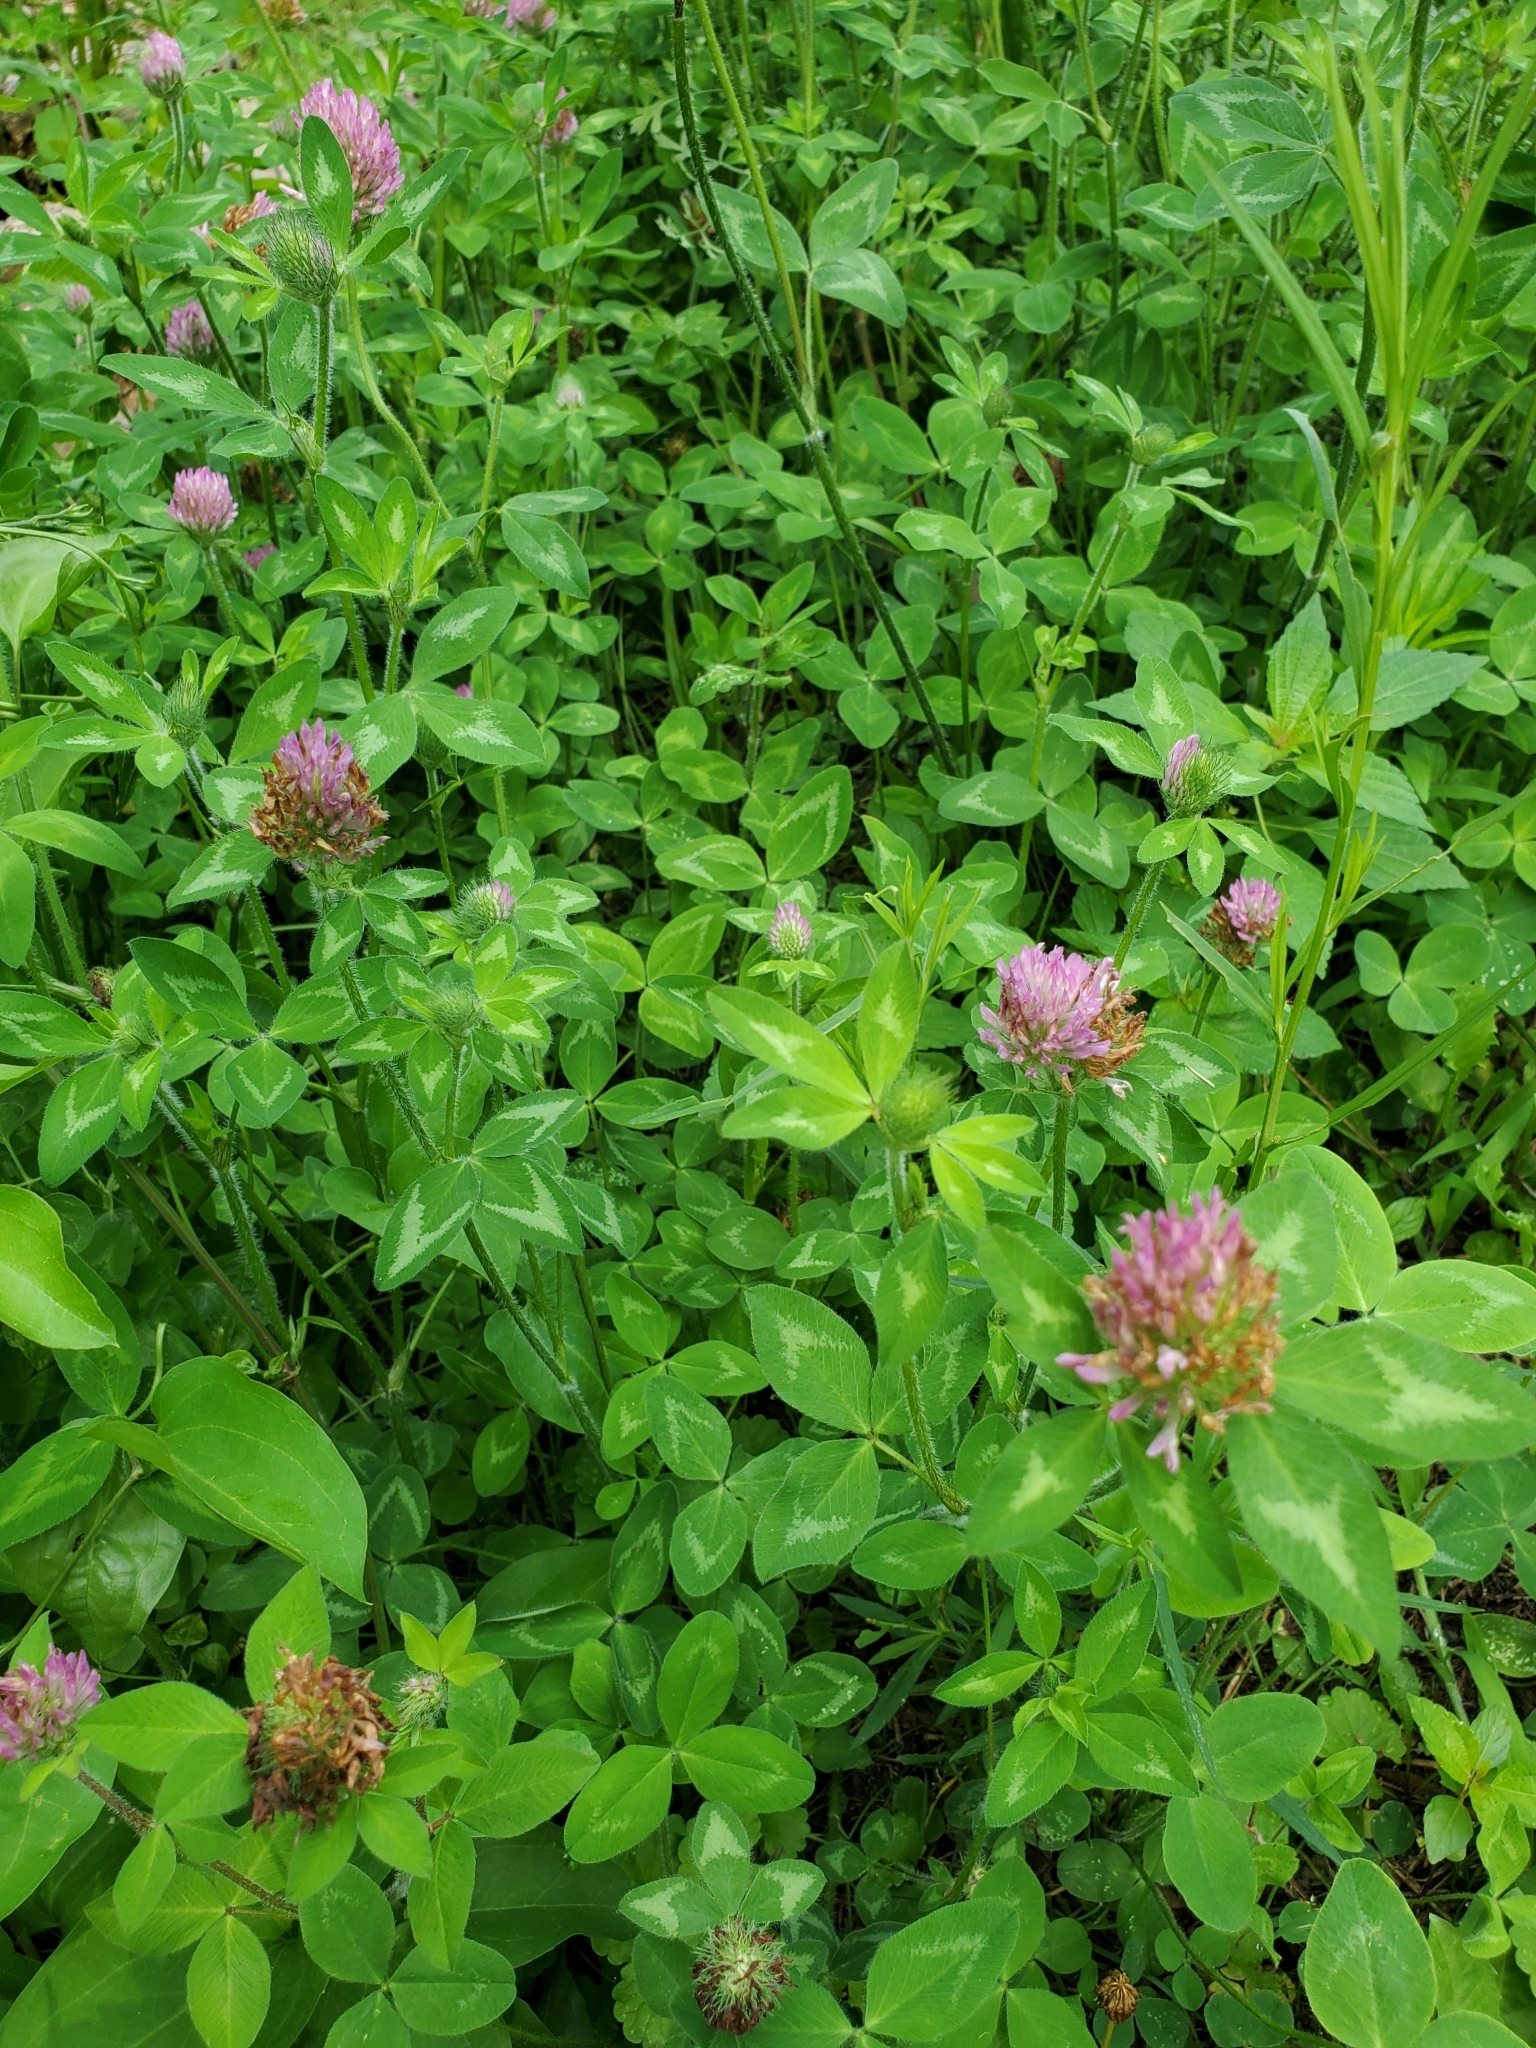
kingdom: Plantae
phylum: Tracheophyta
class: Magnoliopsida
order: Fabales
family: Fabaceae
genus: Trifolium
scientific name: Trifolium pratense
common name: Red clover
